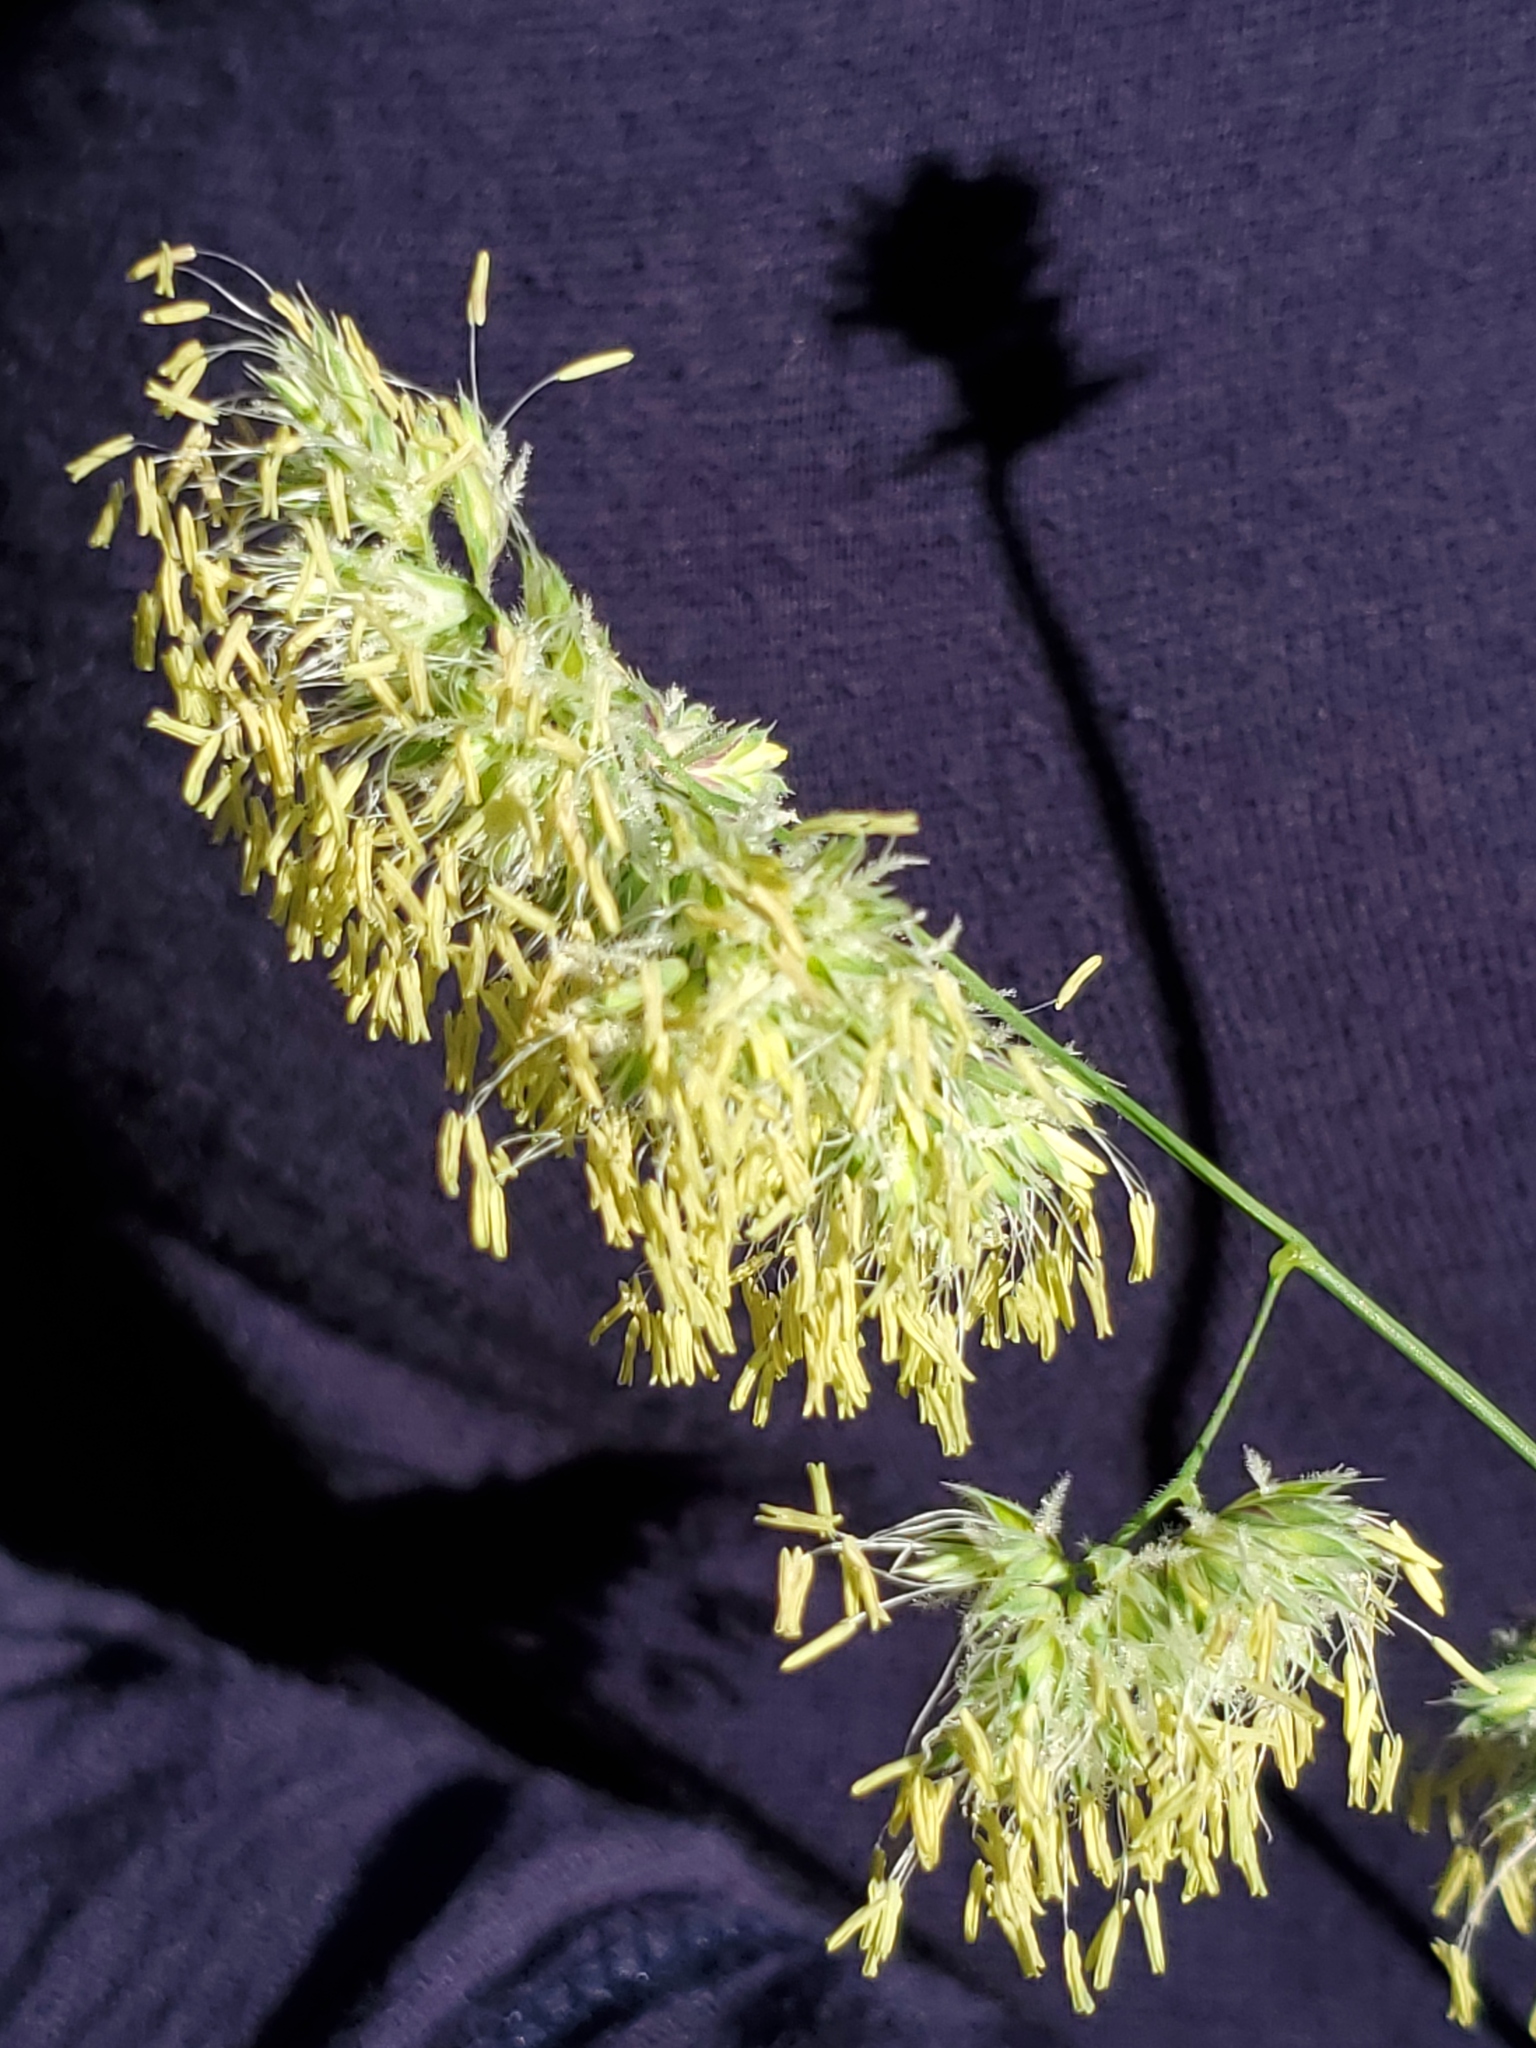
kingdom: Plantae
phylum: Tracheophyta
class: Liliopsida
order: Poales
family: Poaceae
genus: Dactylis
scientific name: Dactylis glomerata
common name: Orchardgrass
